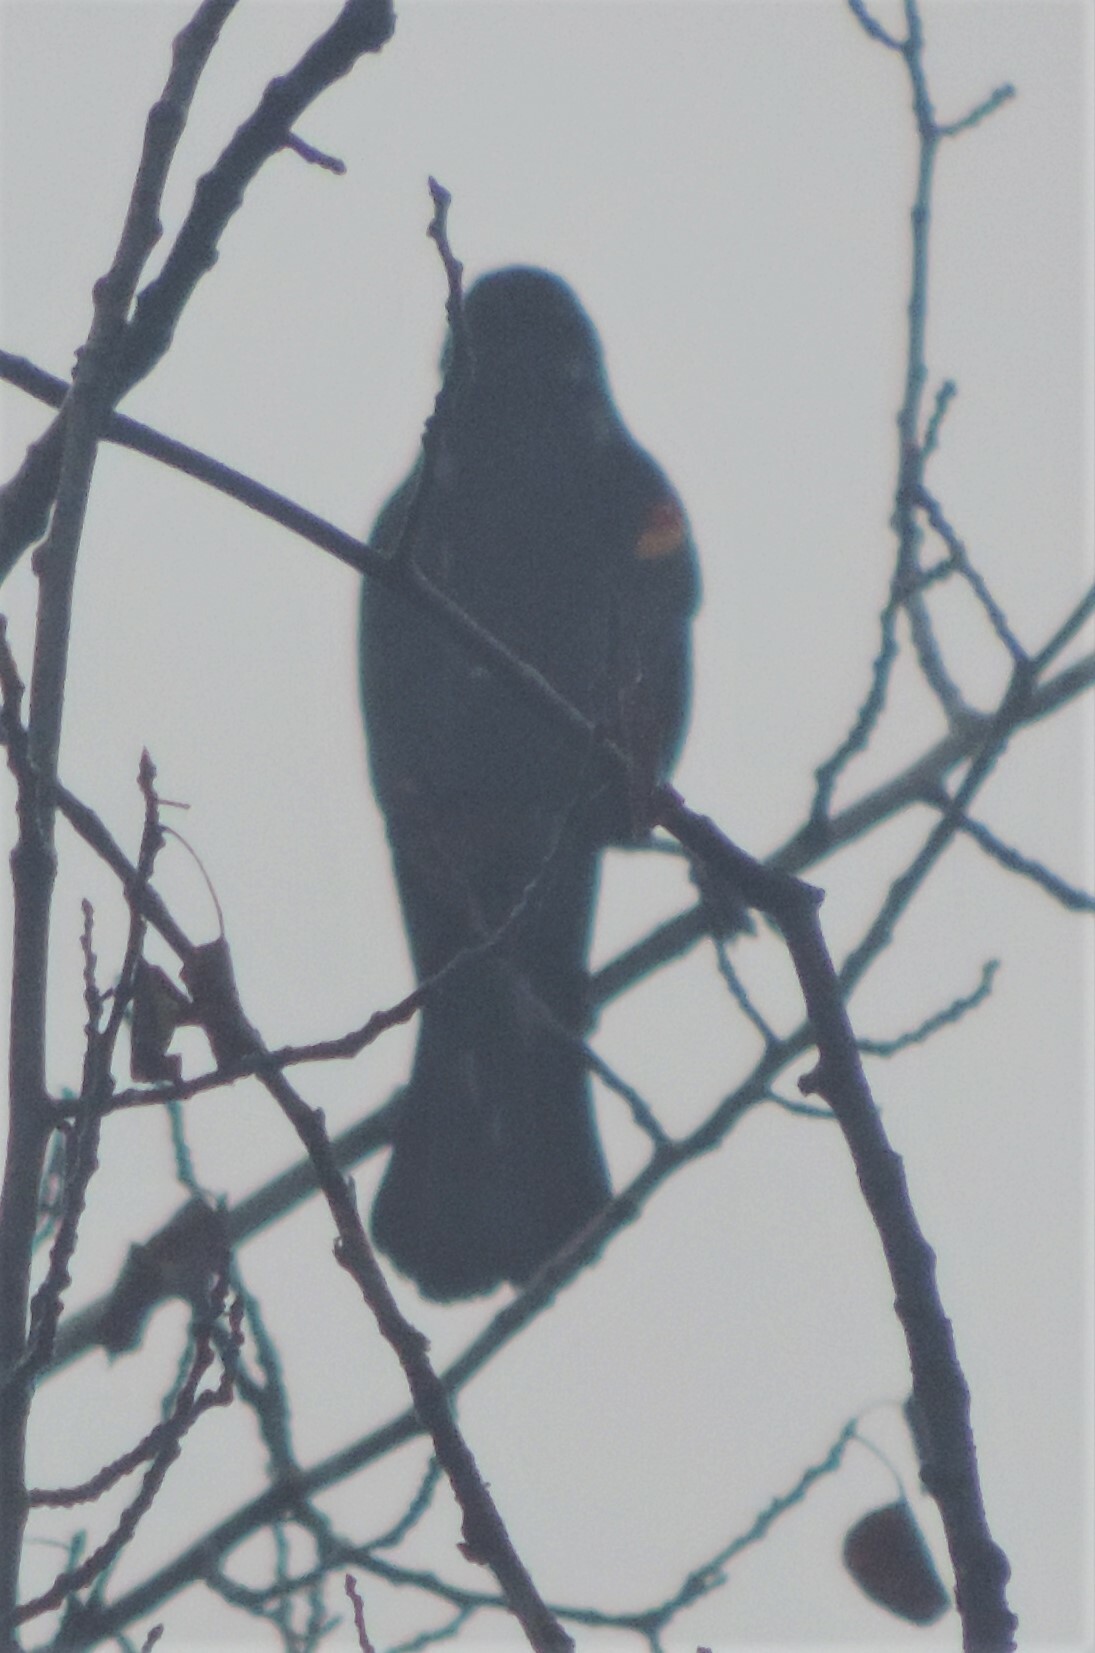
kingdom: Animalia
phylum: Chordata
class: Aves
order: Passeriformes
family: Icteridae
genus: Agelaius
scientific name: Agelaius phoeniceus
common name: Red-winged blackbird
